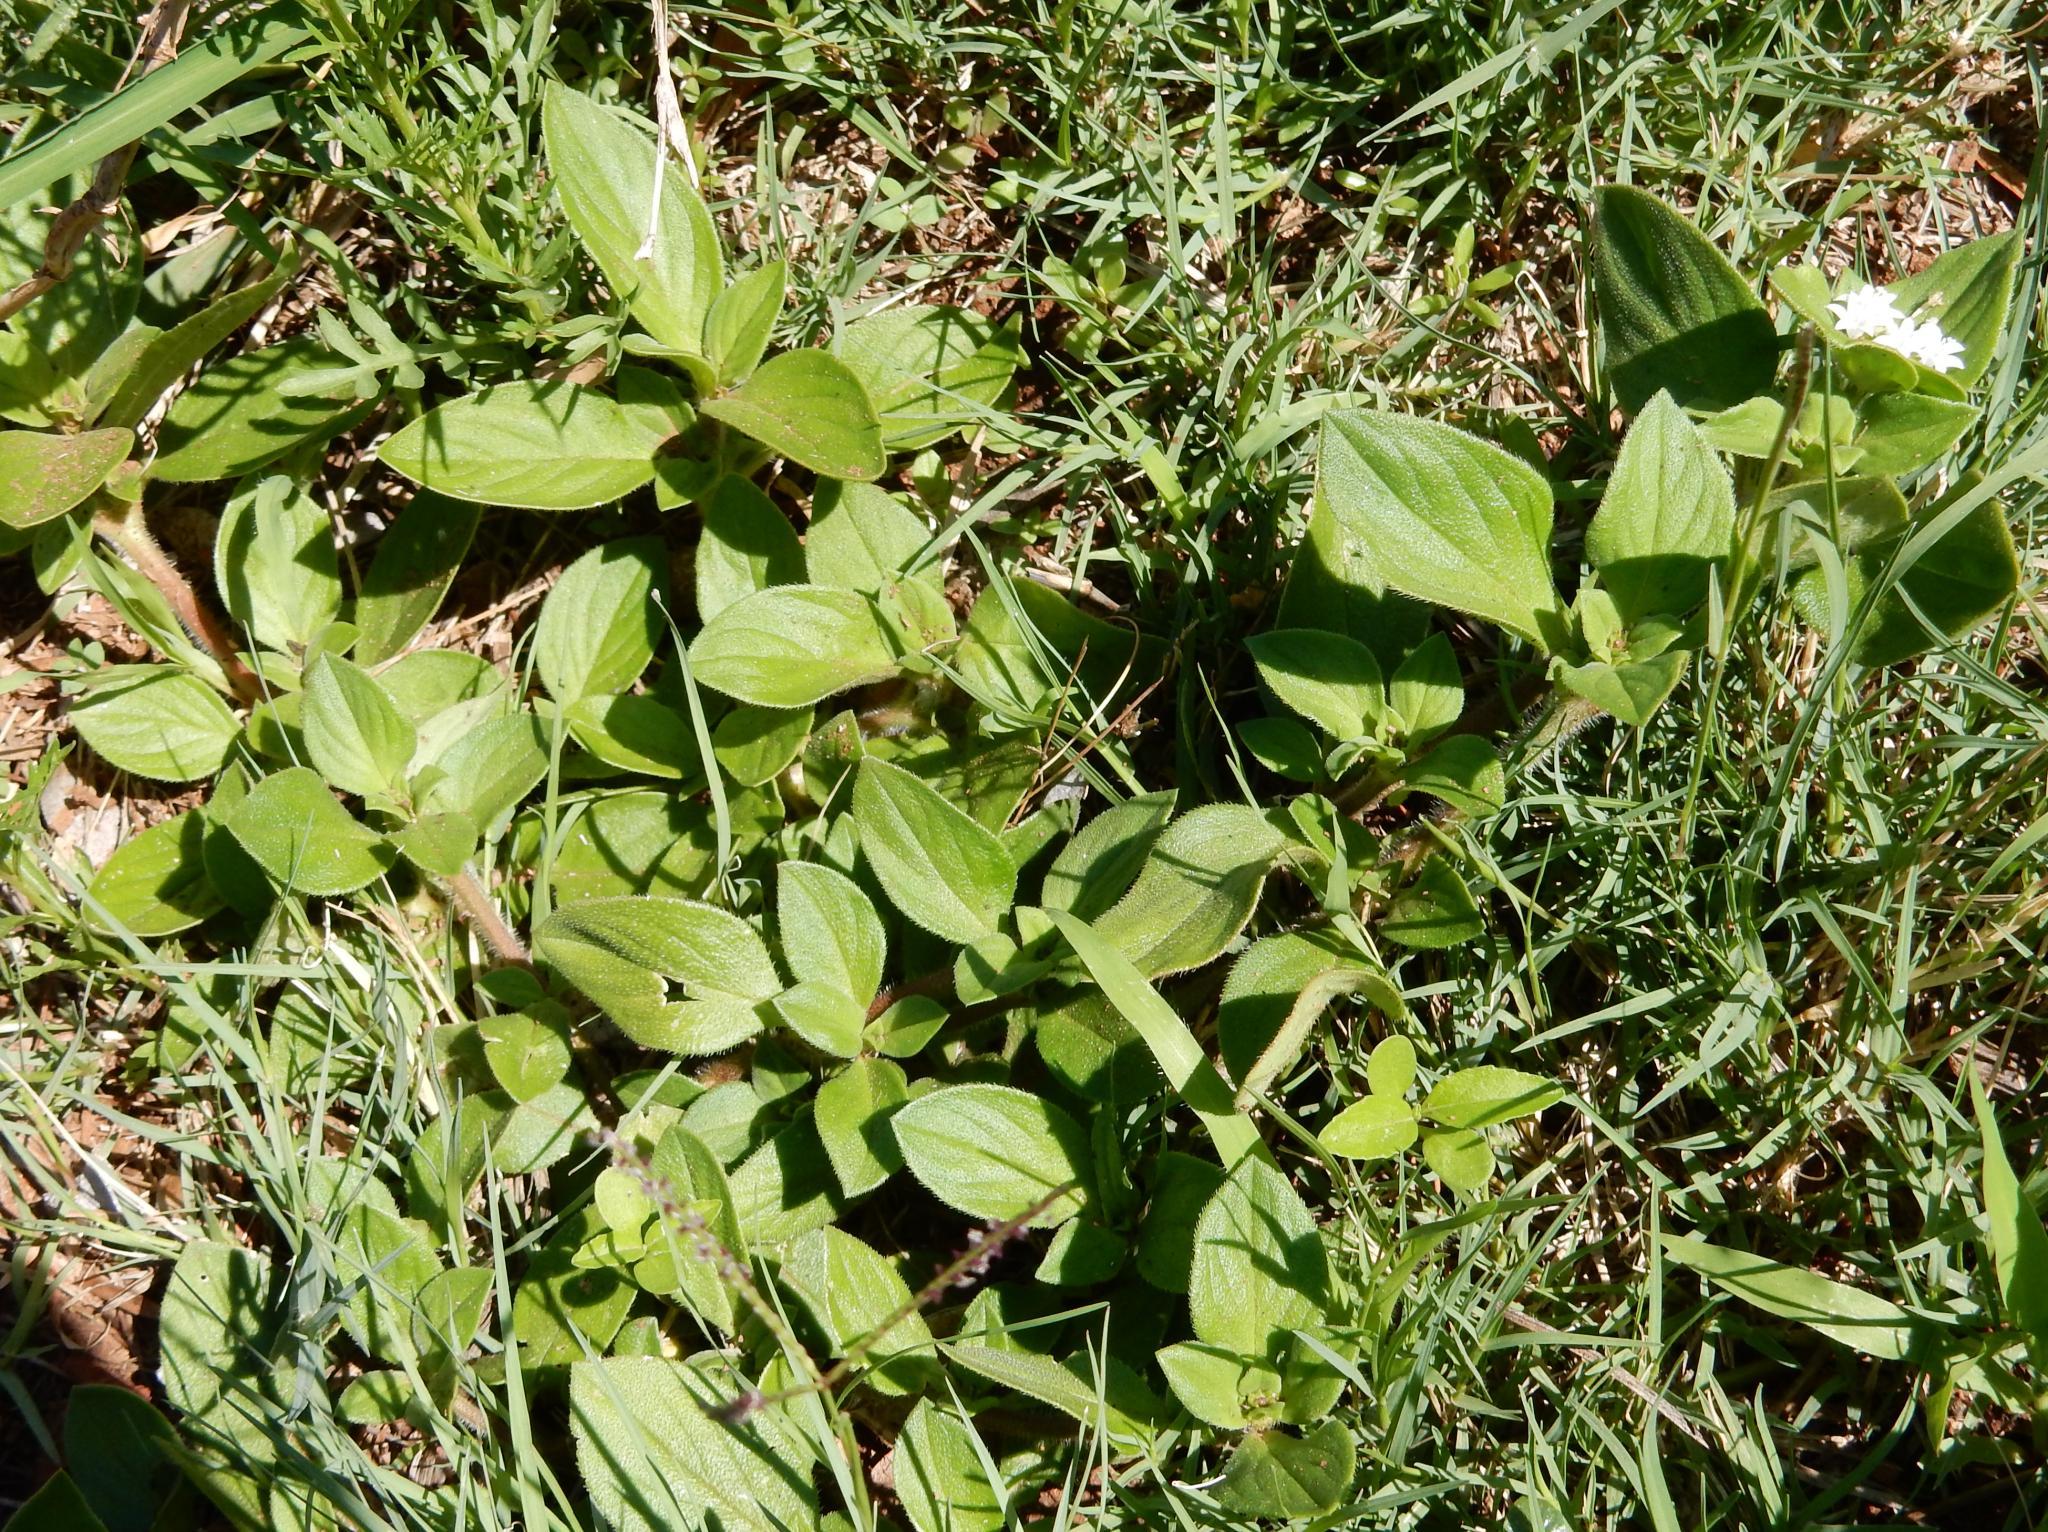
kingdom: Plantae
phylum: Tracheophyta
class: Magnoliopsida
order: Gentianales
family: Rubiaceae
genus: Richardia
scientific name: Richardia brasiliensis
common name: Tropical mexican clover
